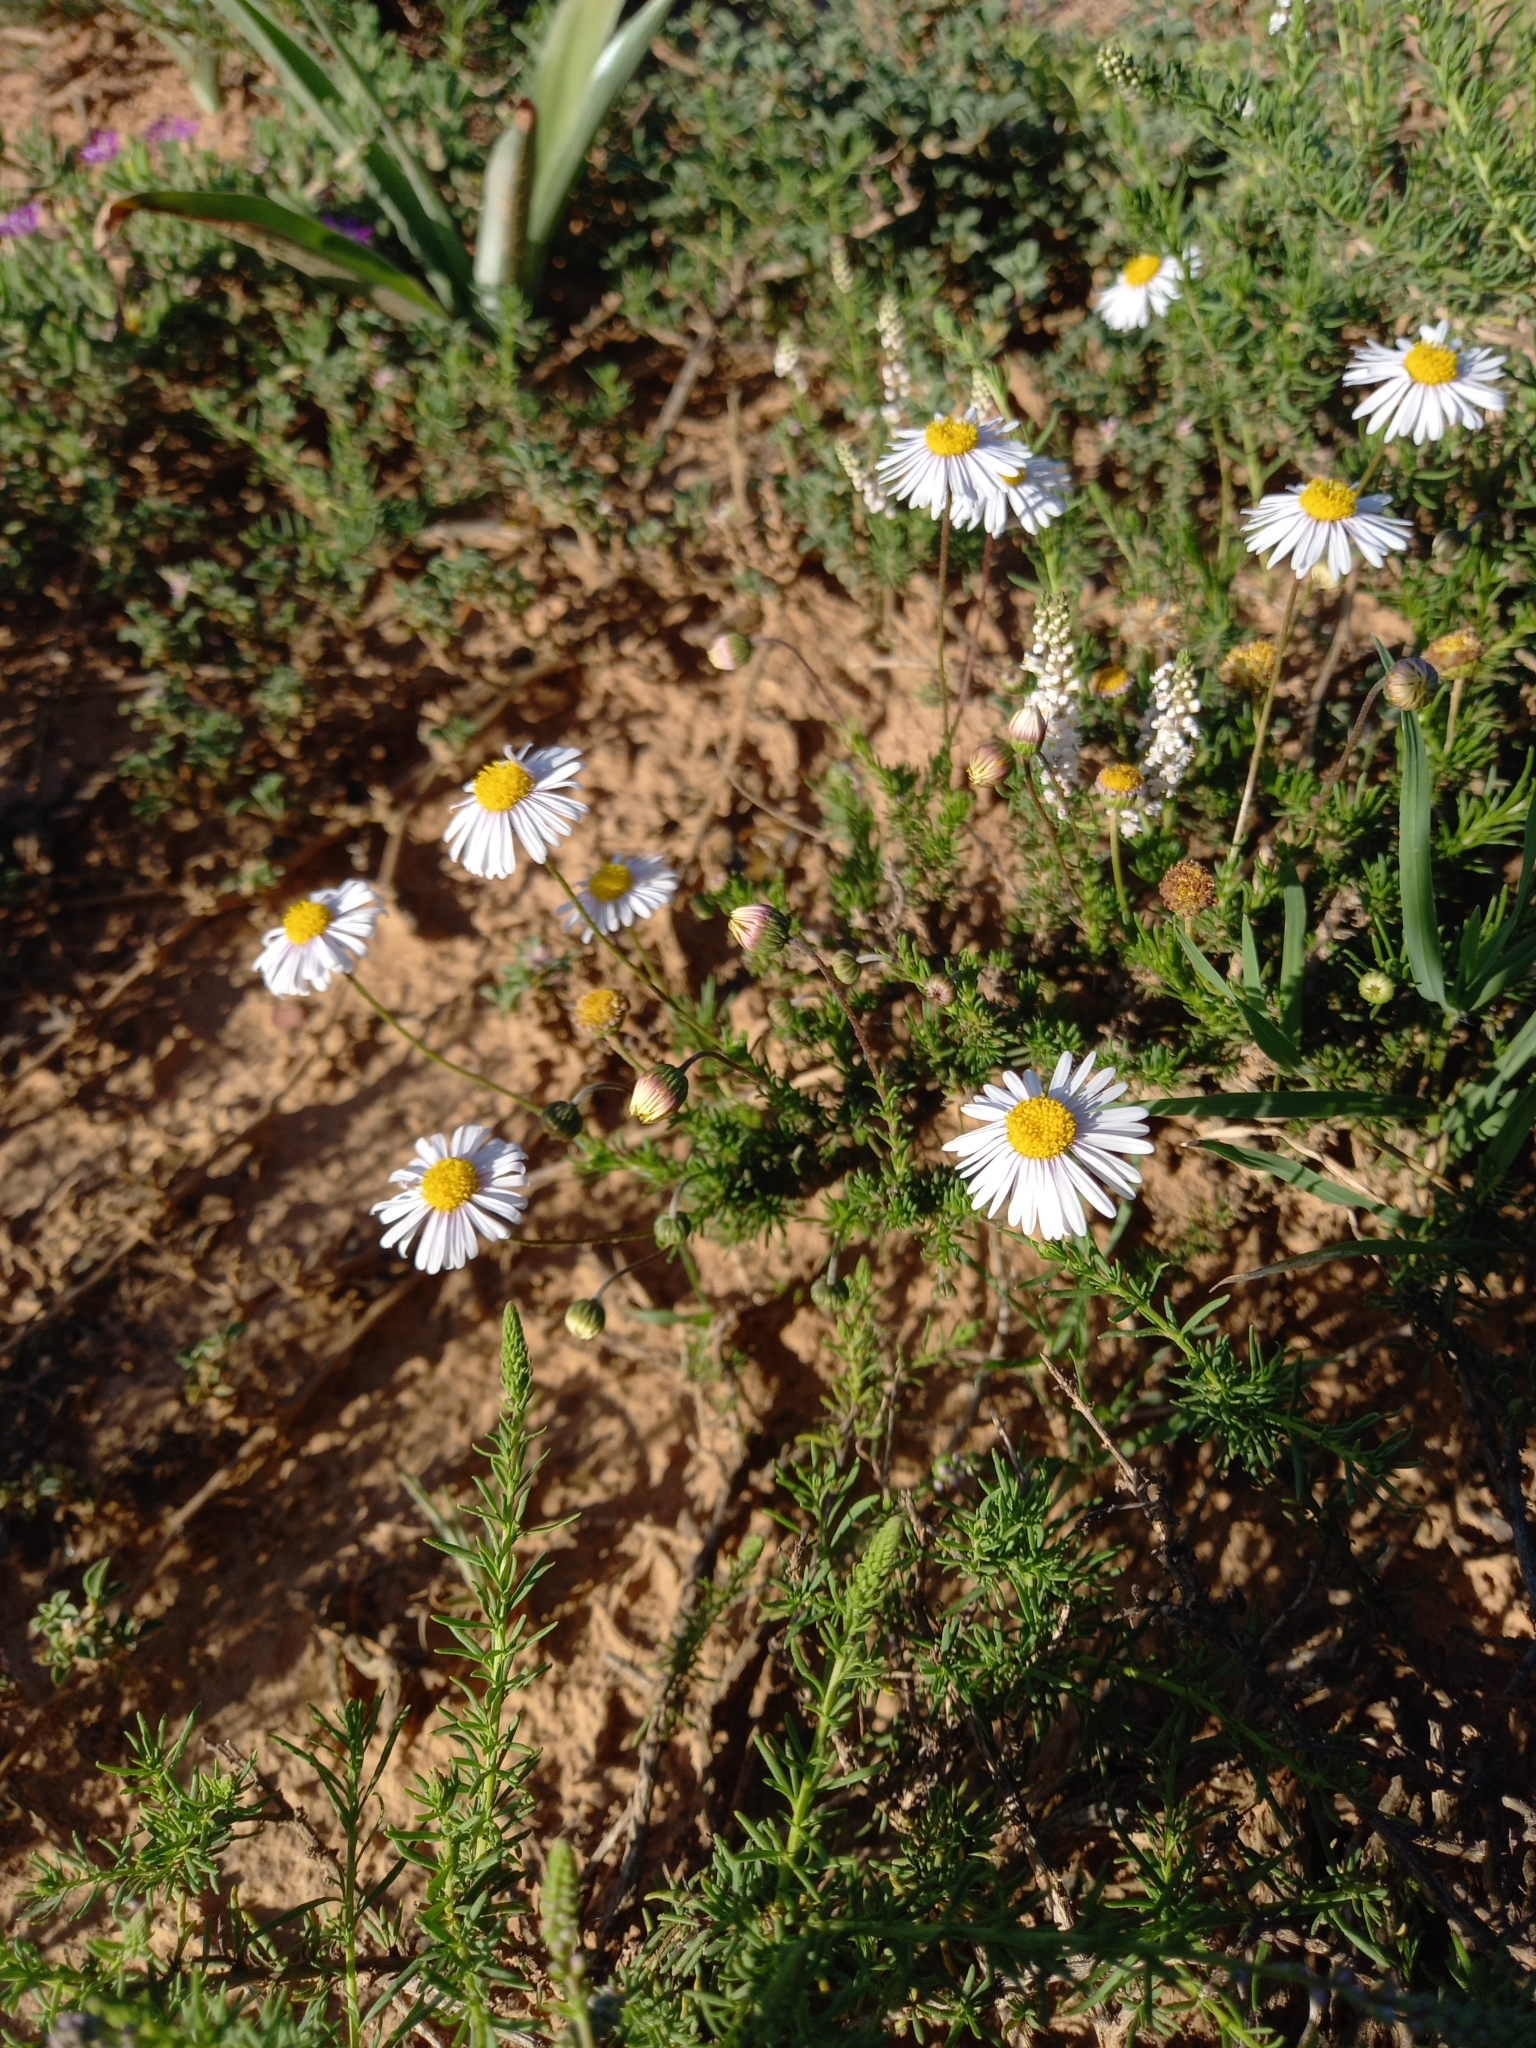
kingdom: Plantae
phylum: Tracheophyta
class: Magnoliopsida
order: Asterales
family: Asteraceae
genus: Felicia
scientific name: Felicia muricata
